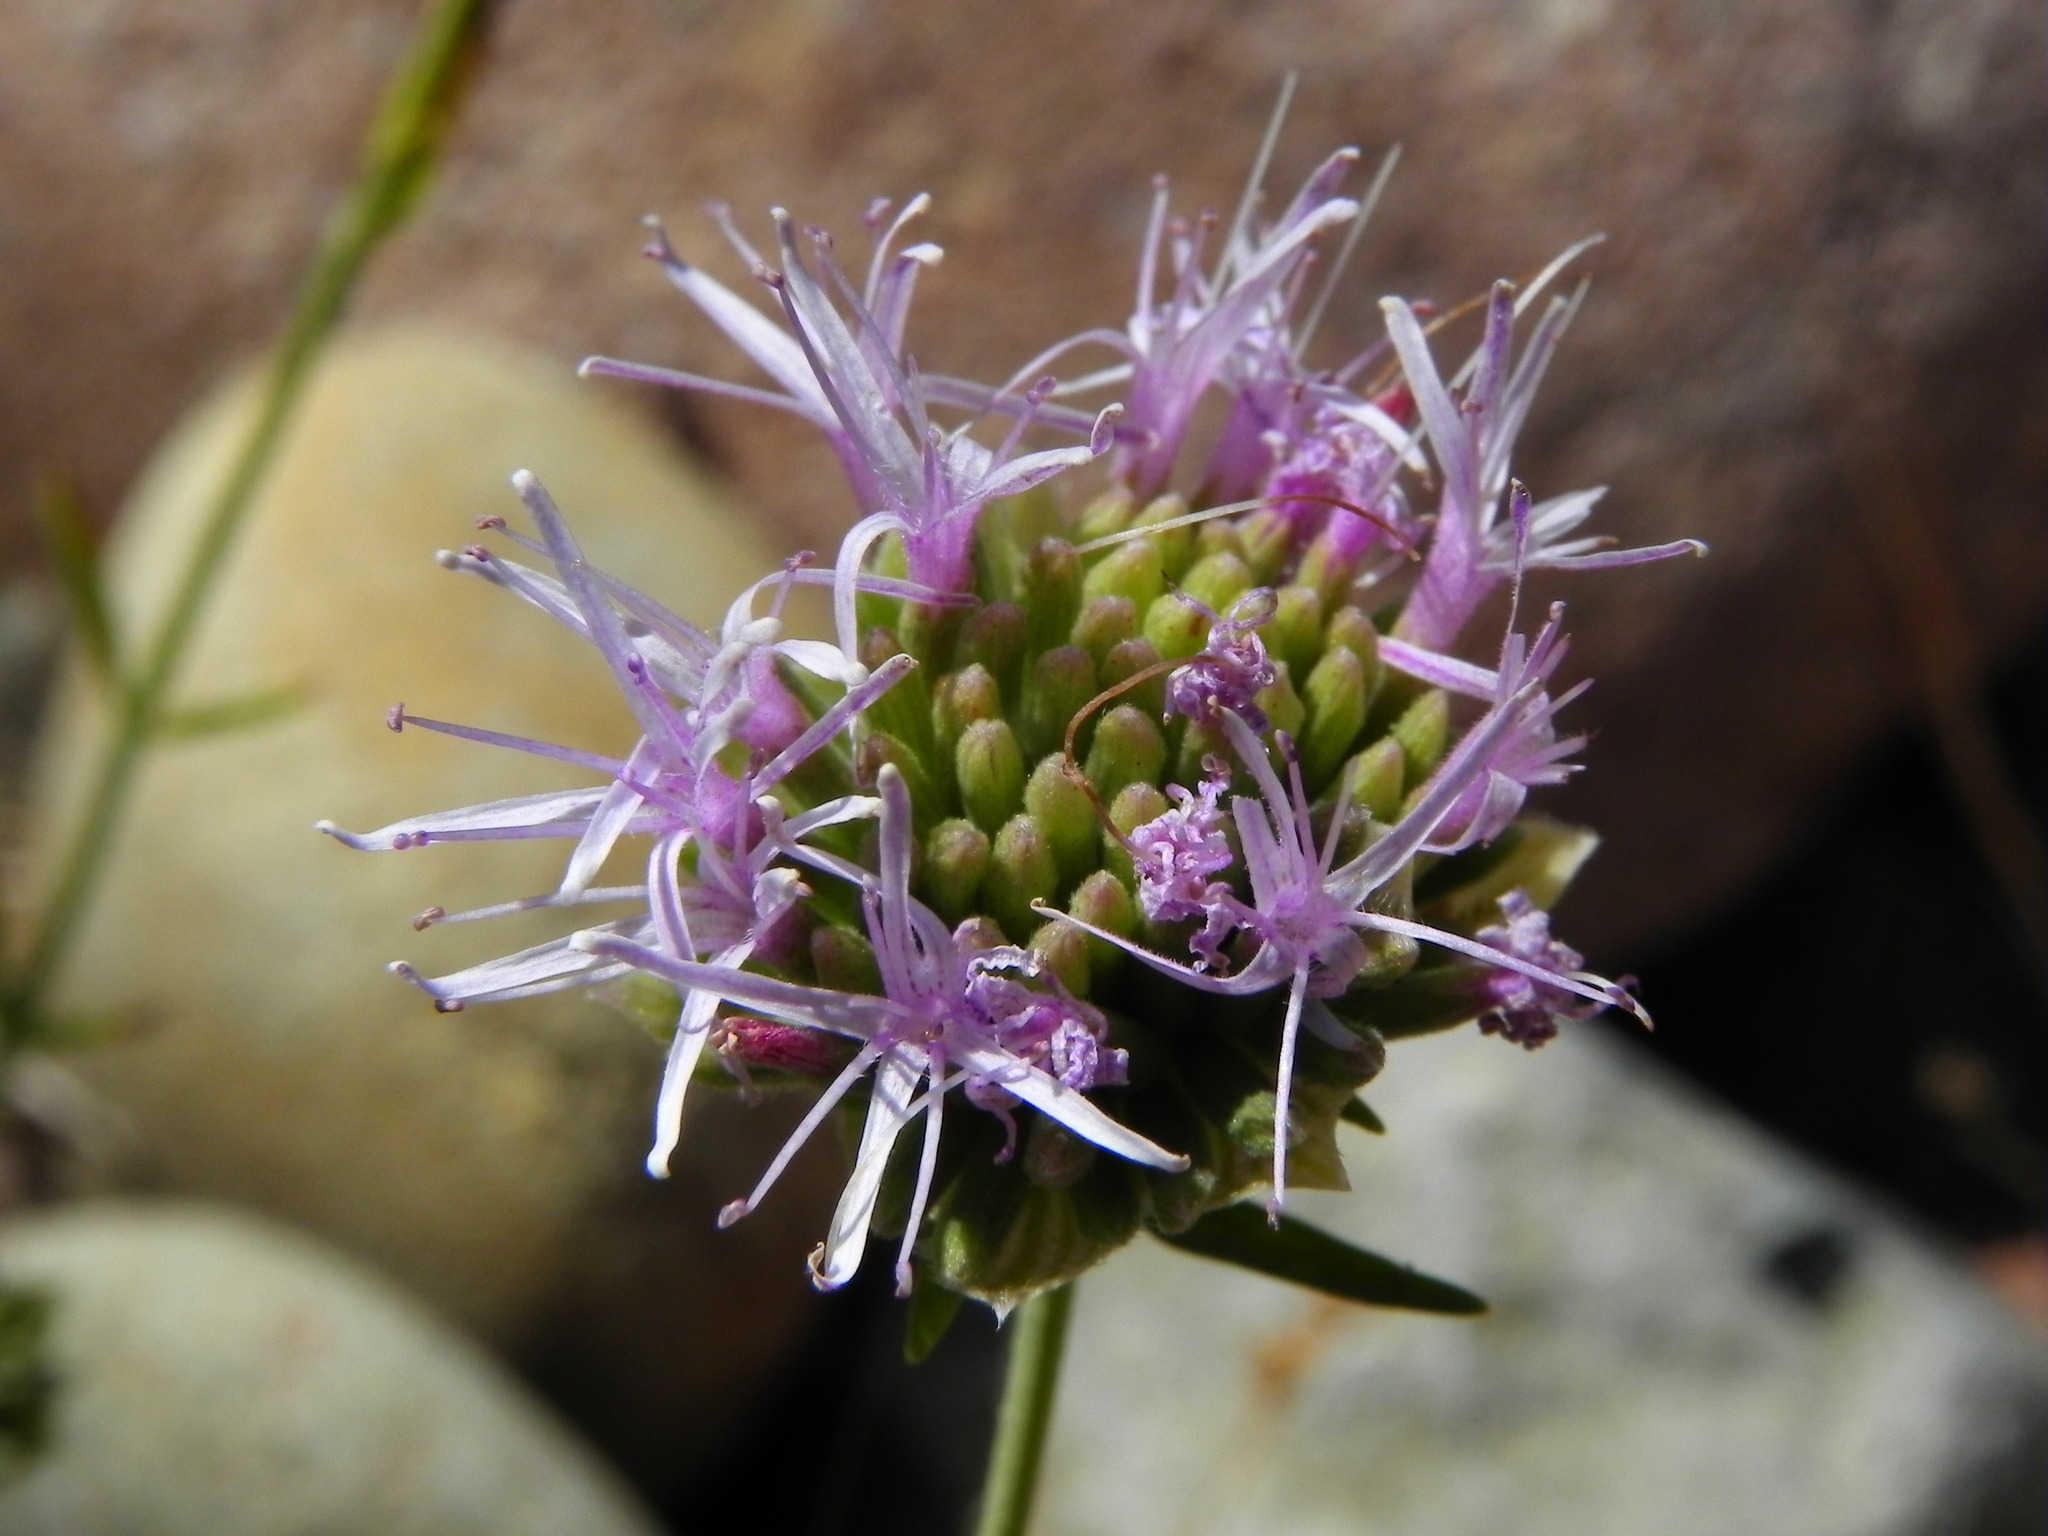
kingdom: Plantae
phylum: Tracheophyta
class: Magnoliopsida
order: Lamiales
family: Lamiaceae
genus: Monardella
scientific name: Monardella viminea
